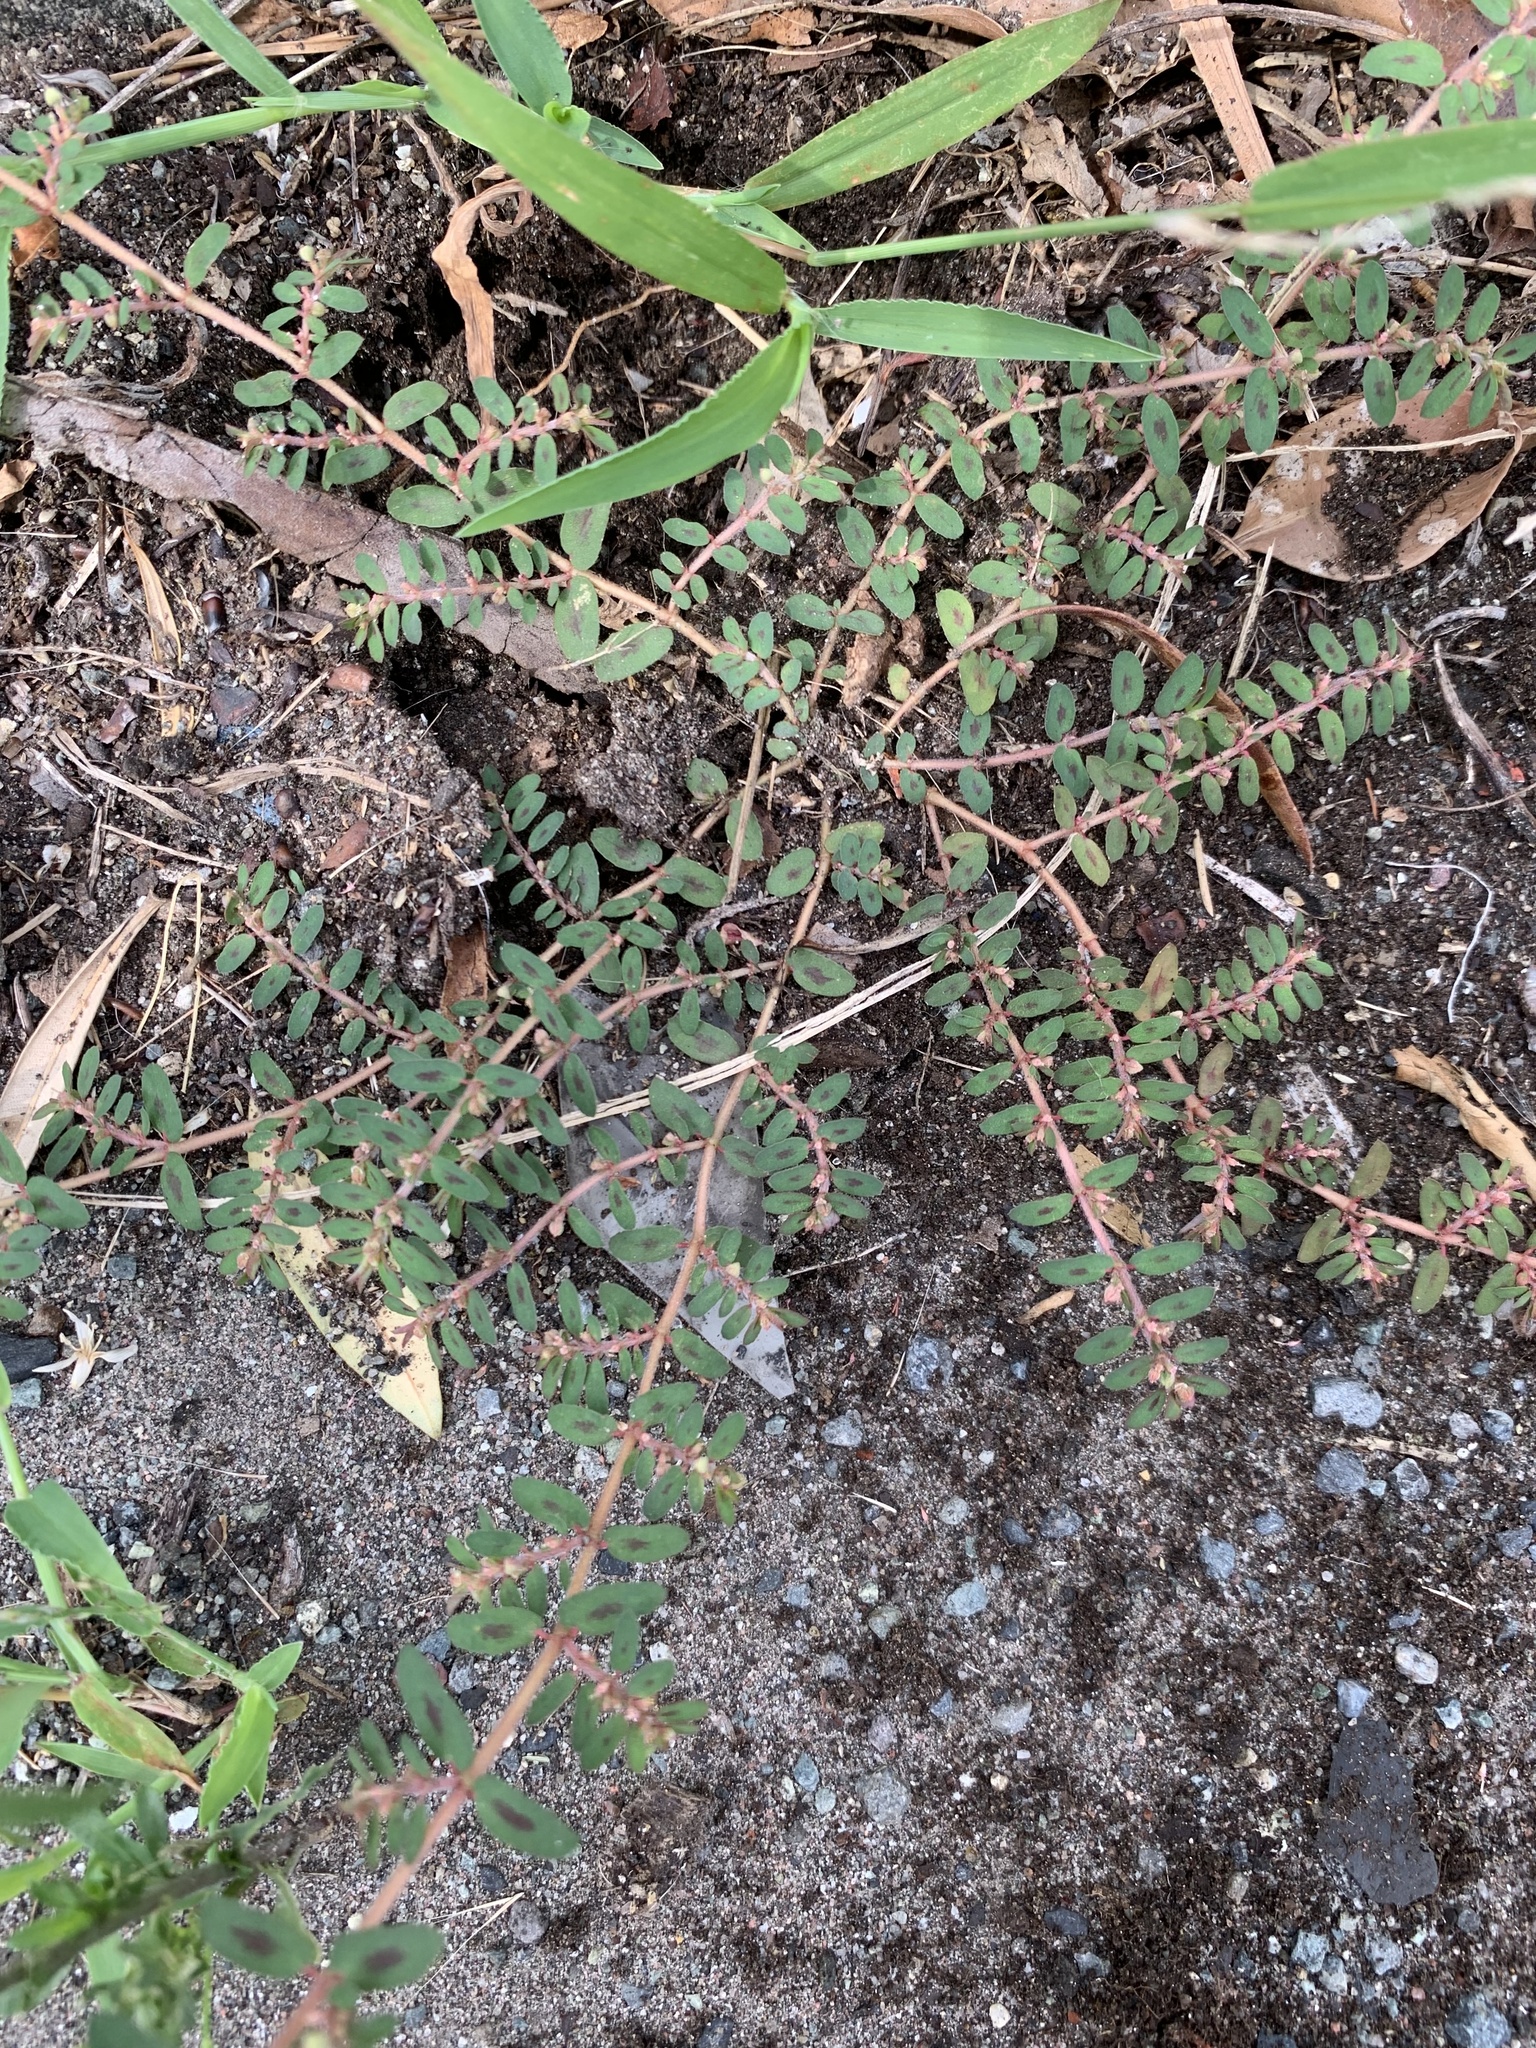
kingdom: Plantae
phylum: Tracheophyta
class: Magnoliopsida
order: Malpighiales
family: Euphorbiaceae
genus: Euphorbia
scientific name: Euphorbia maculata
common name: Spotted spurge
